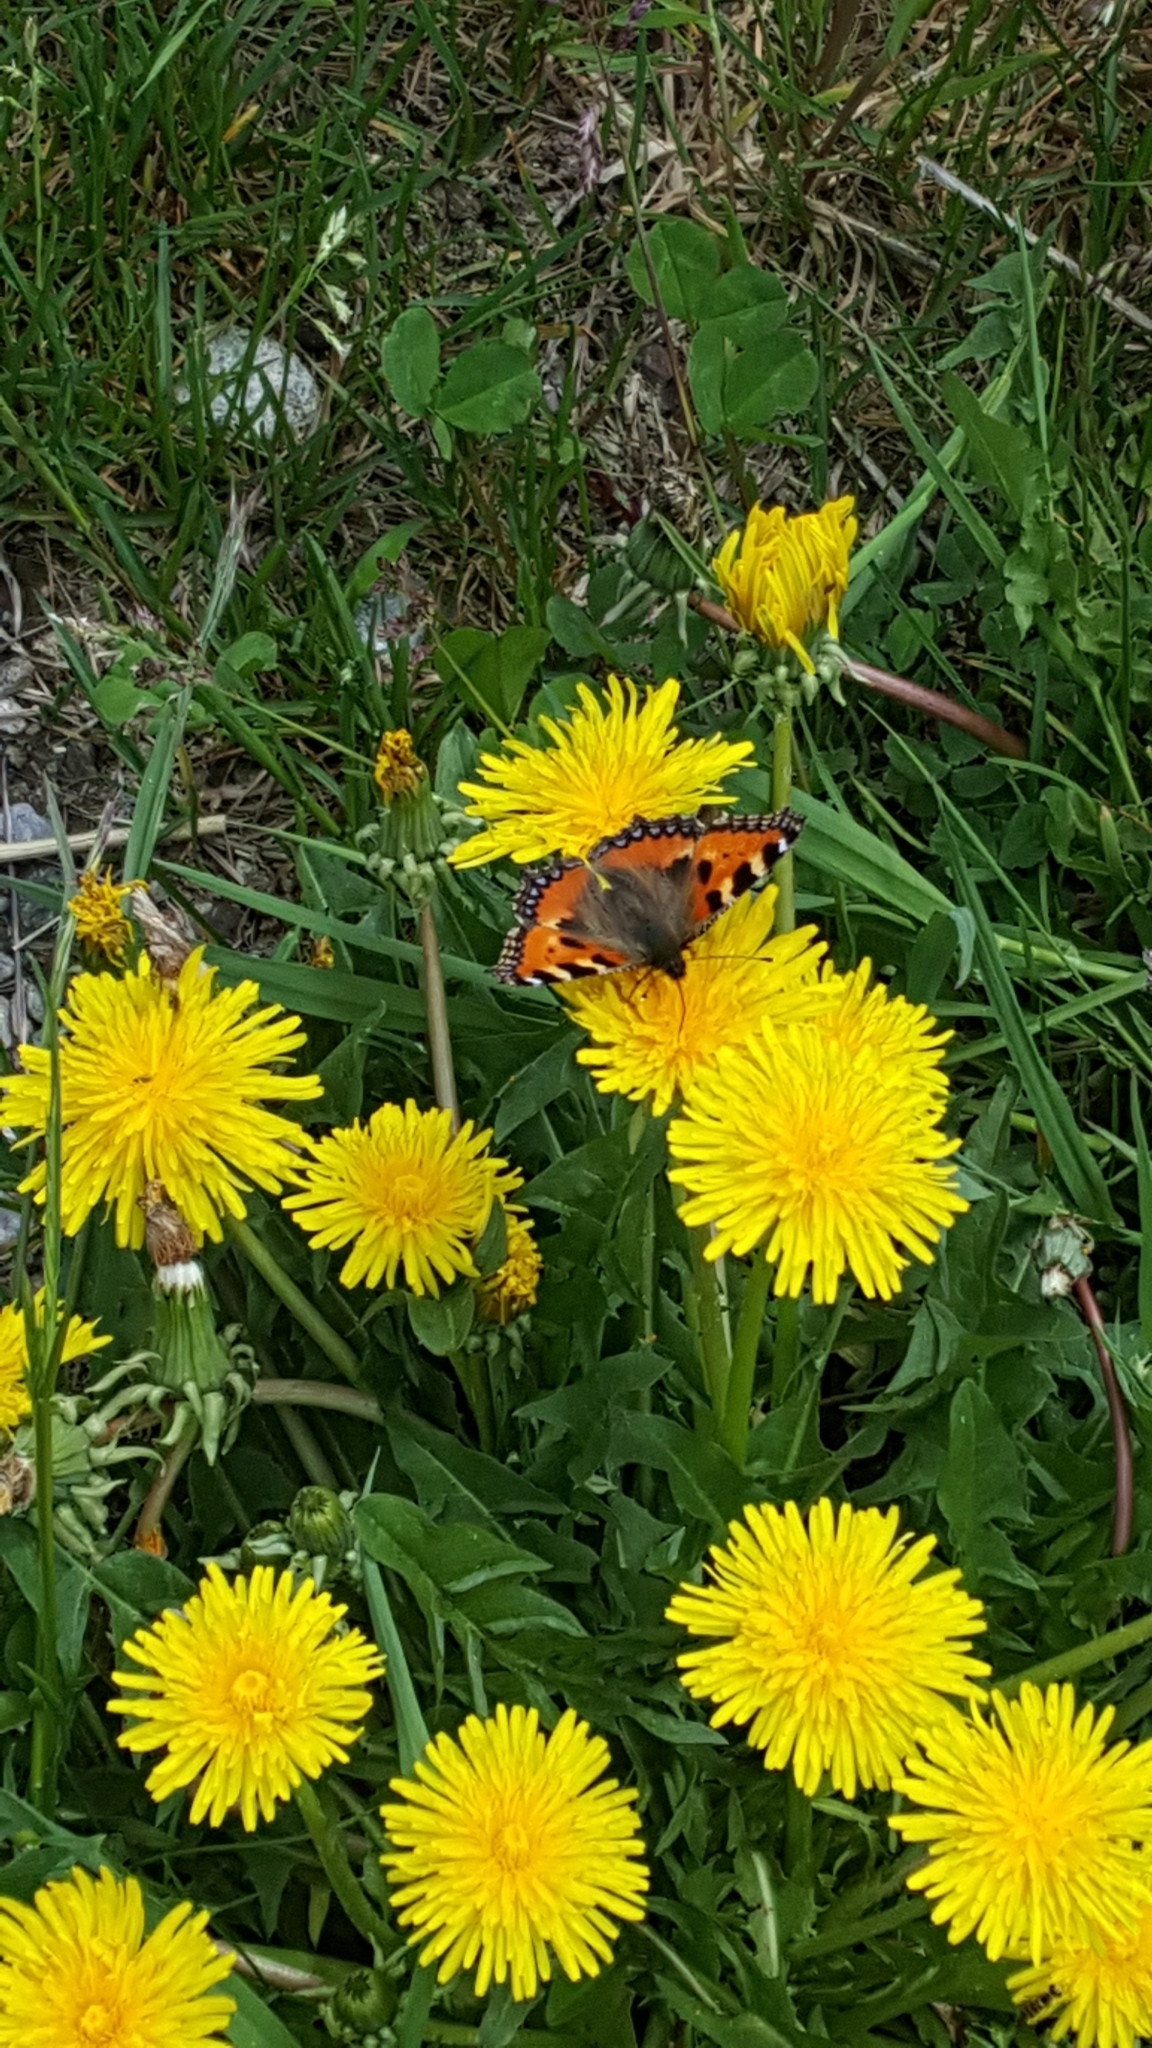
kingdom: Animalia
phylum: Arthropoda
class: Insecta
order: Lepidoptera
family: Nymphalidae
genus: Aglais
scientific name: Aglais urticae
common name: Small tortoiseshell
